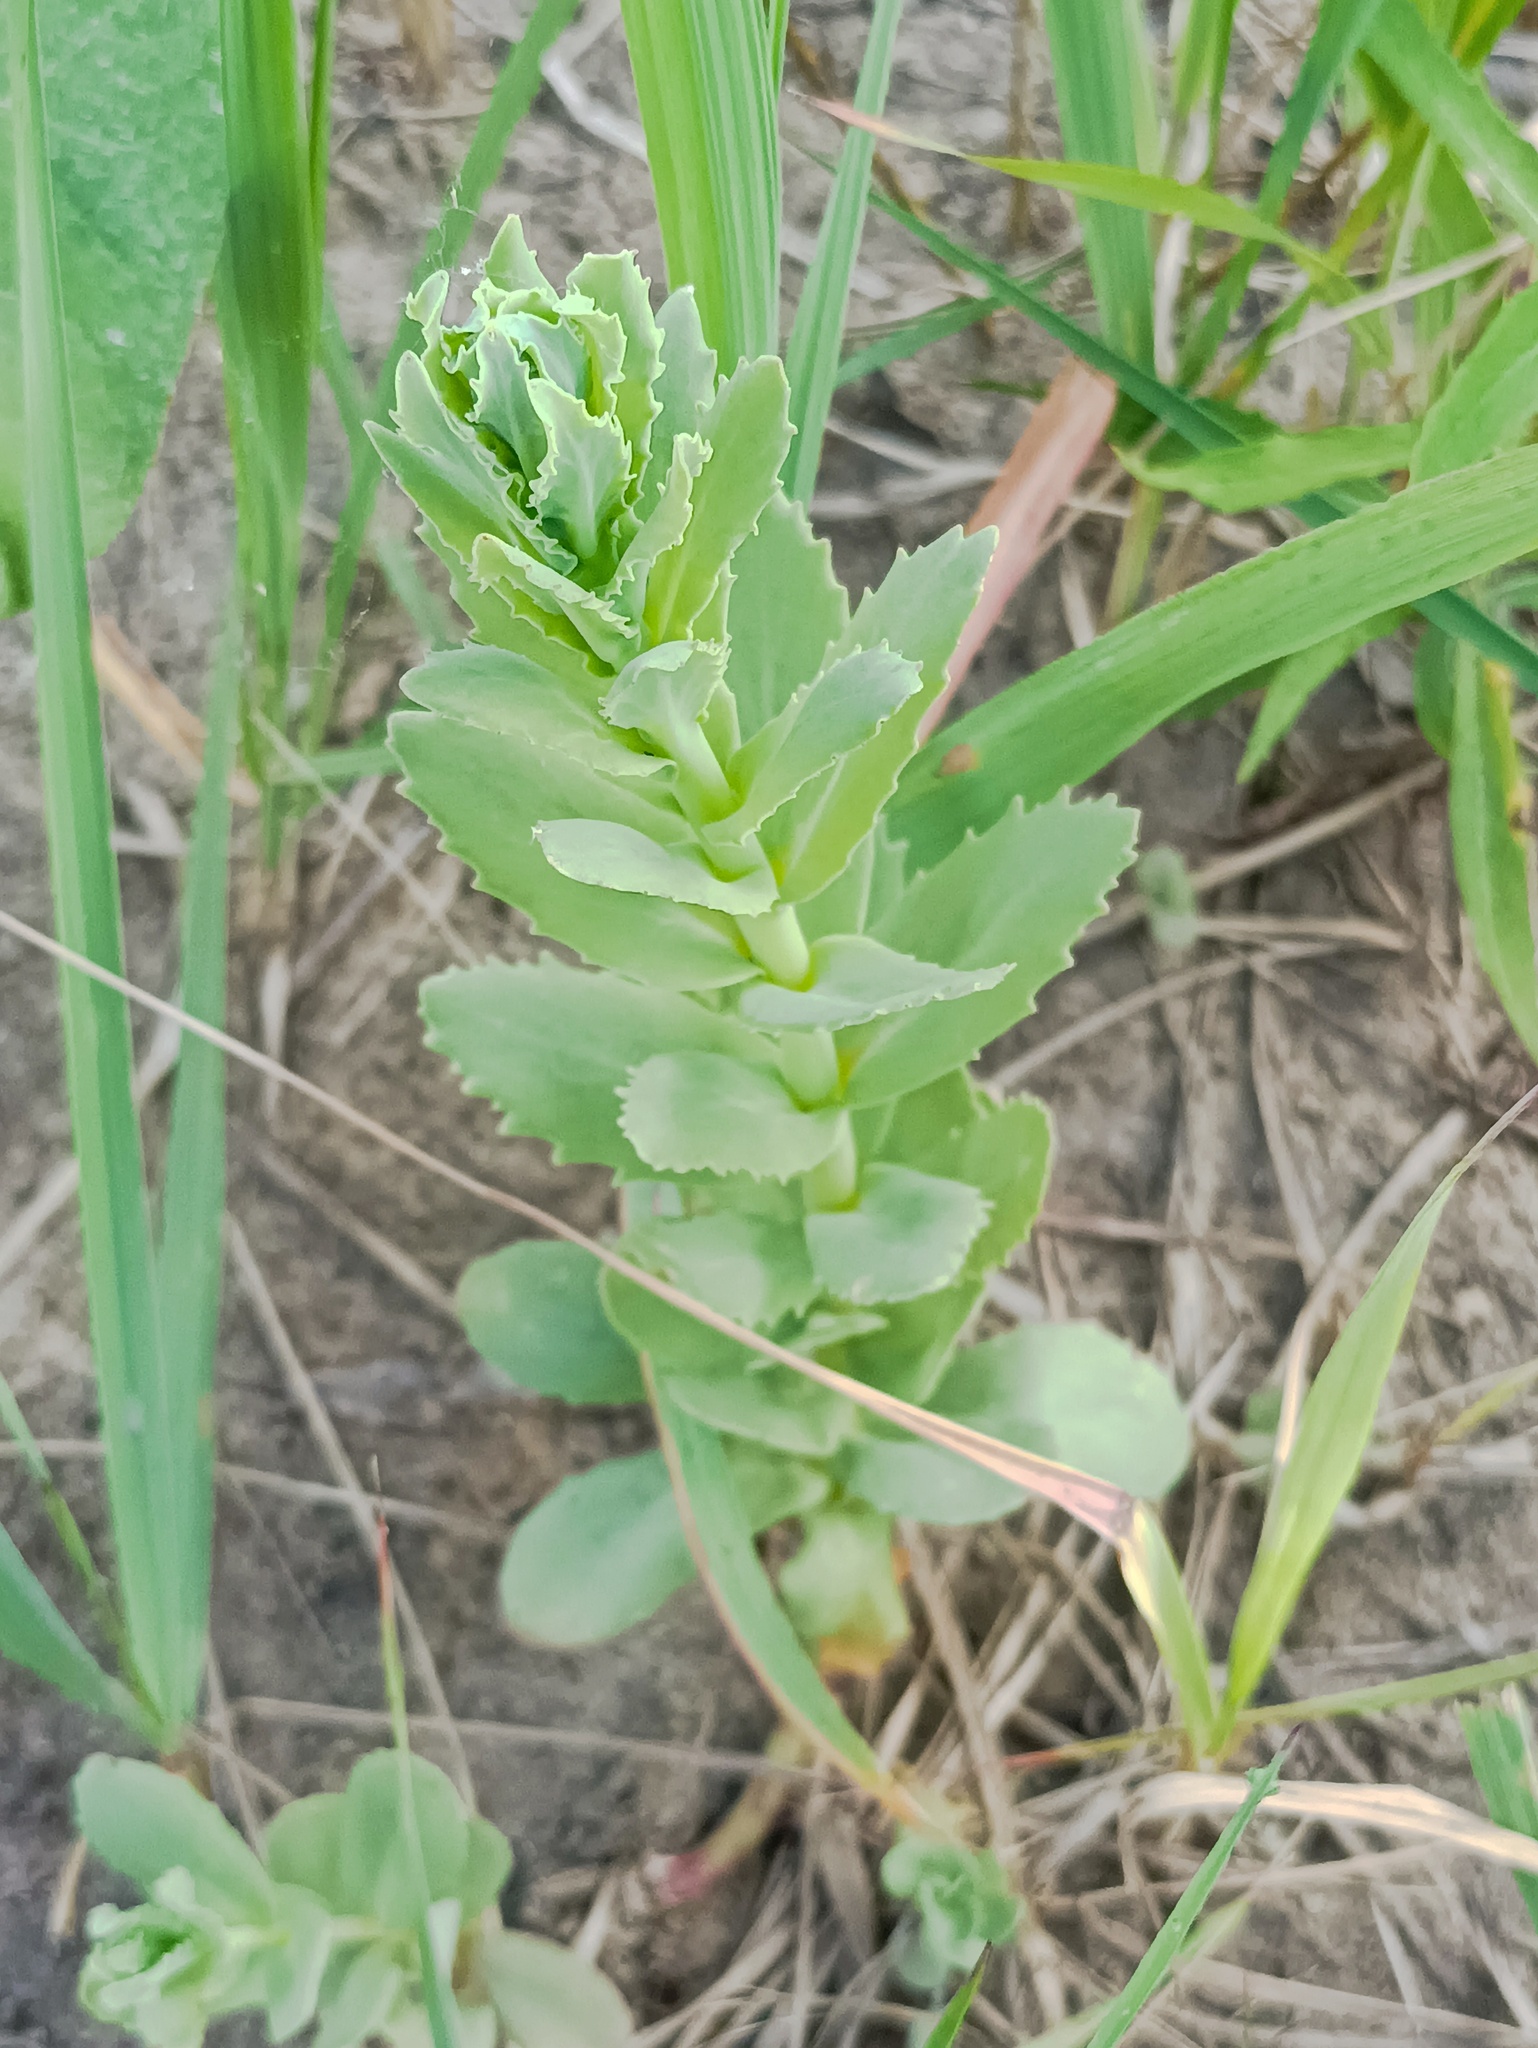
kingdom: Plantae
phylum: Tracheophyta
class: Magnoliopsida
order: Saxifragales
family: Crassulaceae
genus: Hylotelephium
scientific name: Hylotelephium telephium
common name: Live-forever
